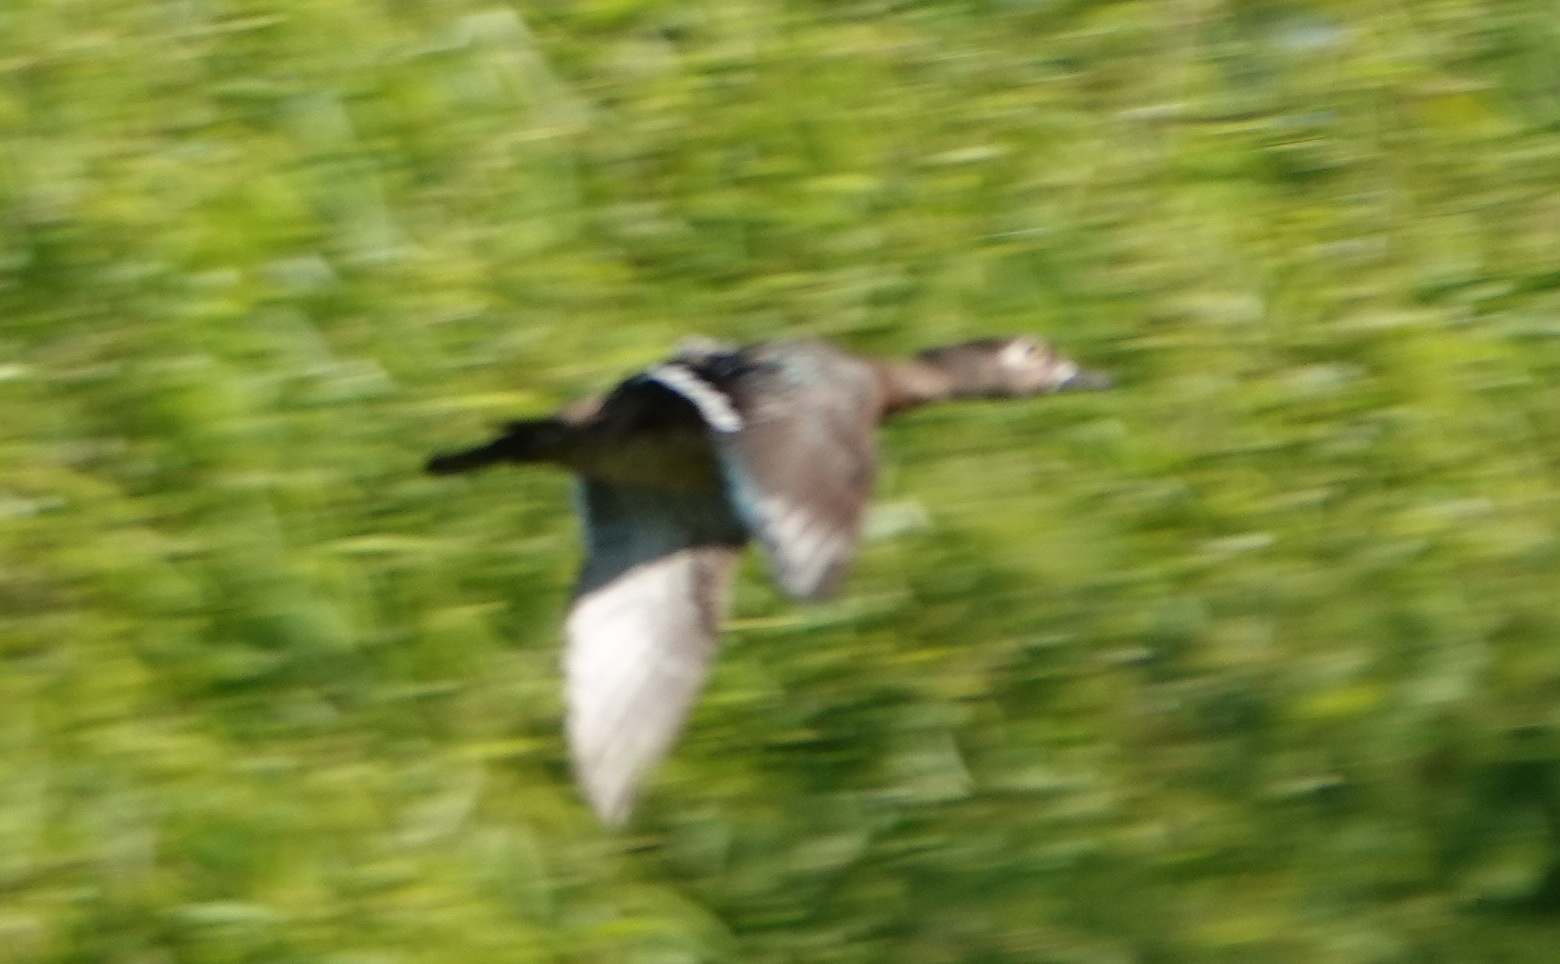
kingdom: Animalia
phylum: Chordata
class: Aves
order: Anseriformes
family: Anatidae
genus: Aix
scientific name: Aix sponsa
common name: Wood duck
